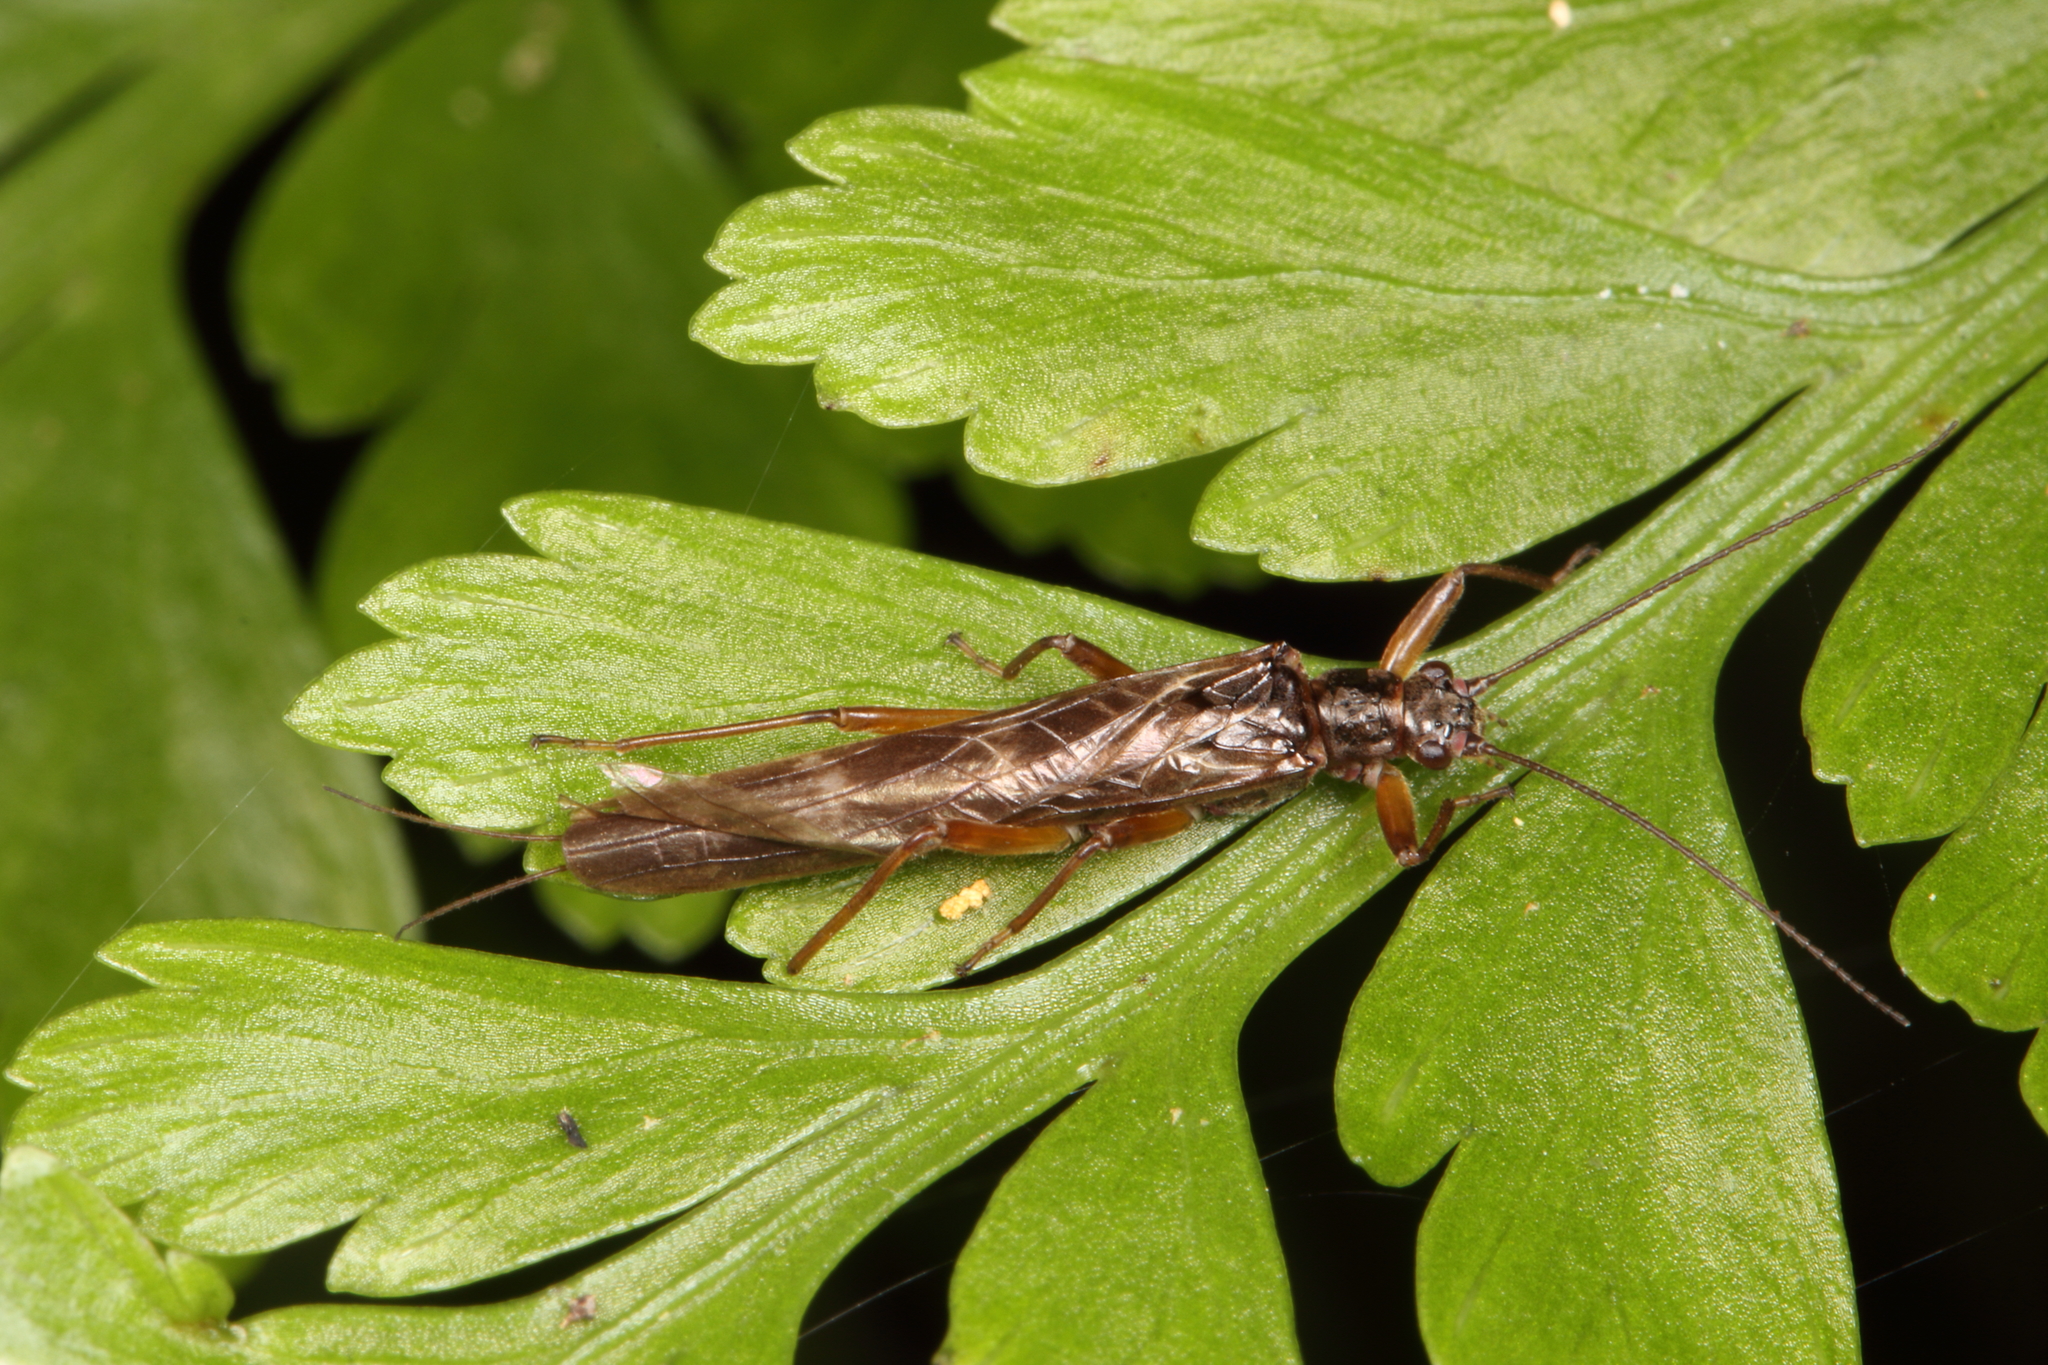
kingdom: Animalia
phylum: Arthropoda
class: Insecta
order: Plecoptera
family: Gripopterygidae
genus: Acroperla
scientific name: Acroperla trivacuata
